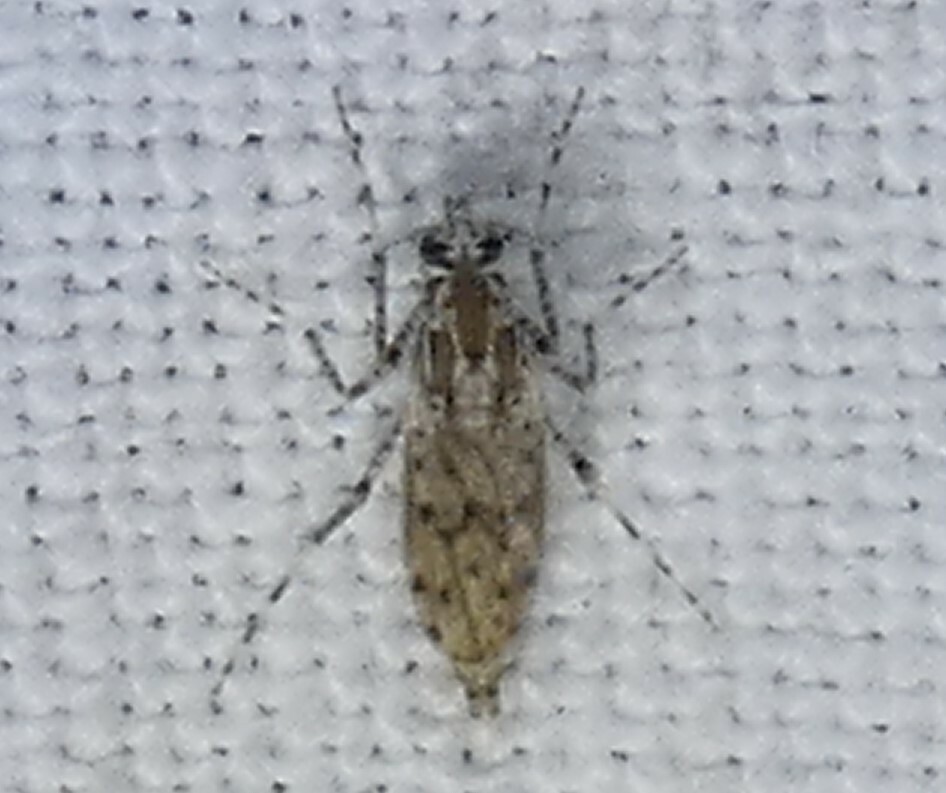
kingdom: Animalia
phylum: Arthropoda
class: Insecta
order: Diptera
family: Chaoboridae
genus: Chaoborus
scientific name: Chaoborus punctipennis
